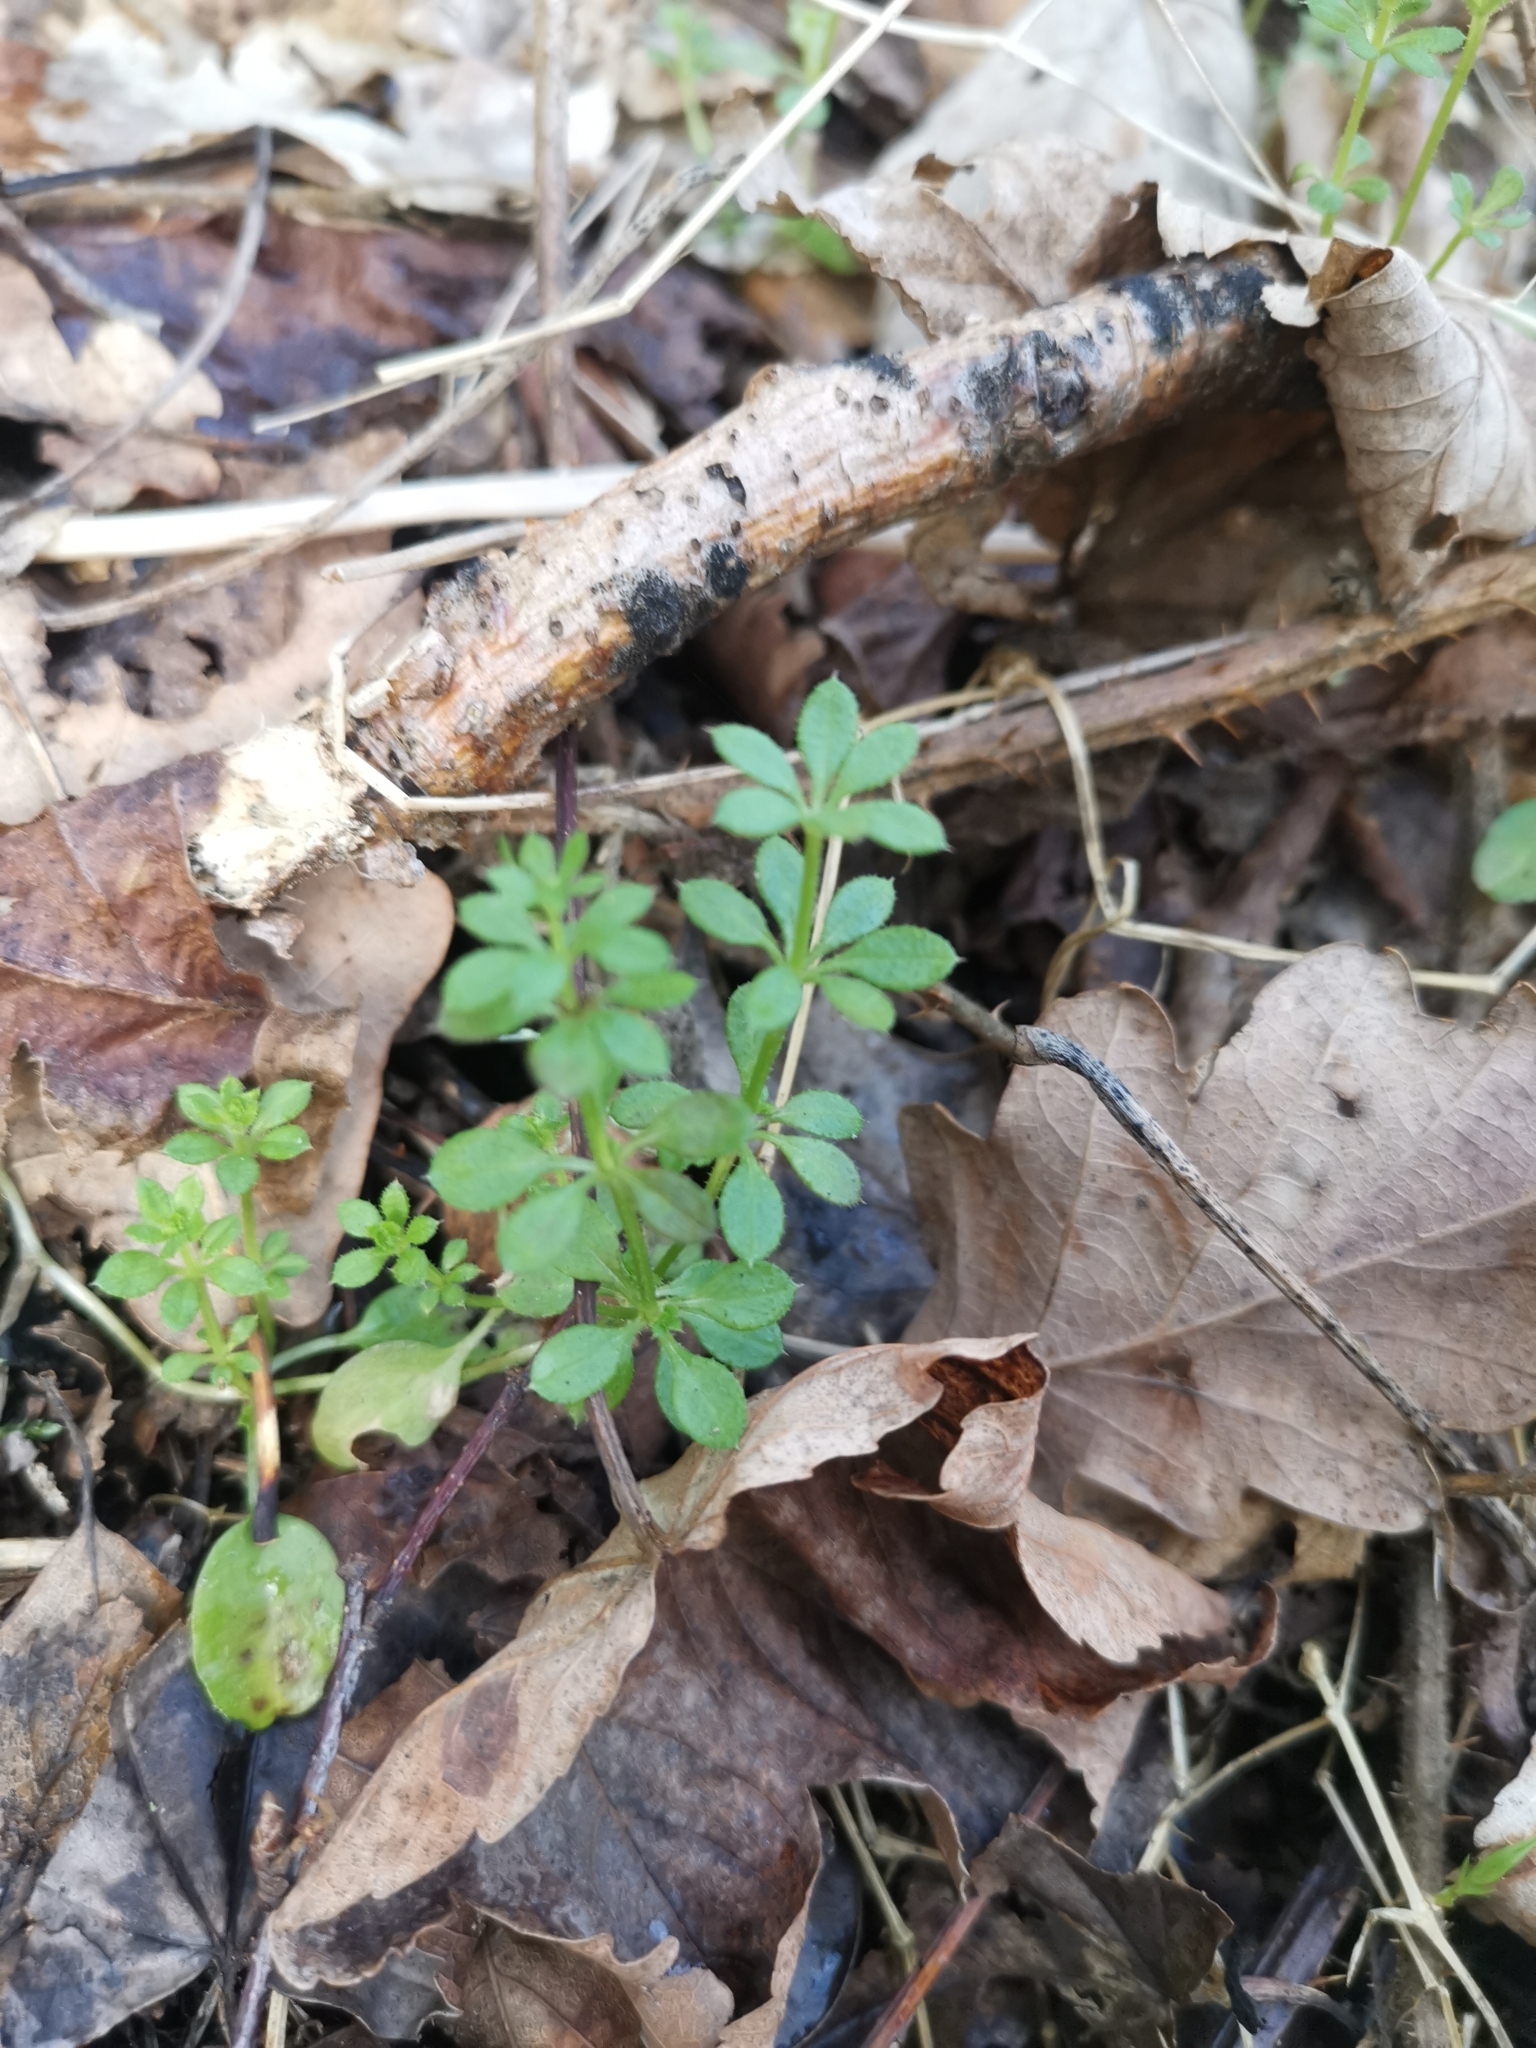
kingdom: Plantae
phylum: Tracheophyta
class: Magnoliopsida
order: Gentianales
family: Rubiaceae
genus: Galium
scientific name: Galium aparine
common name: Cleavers
